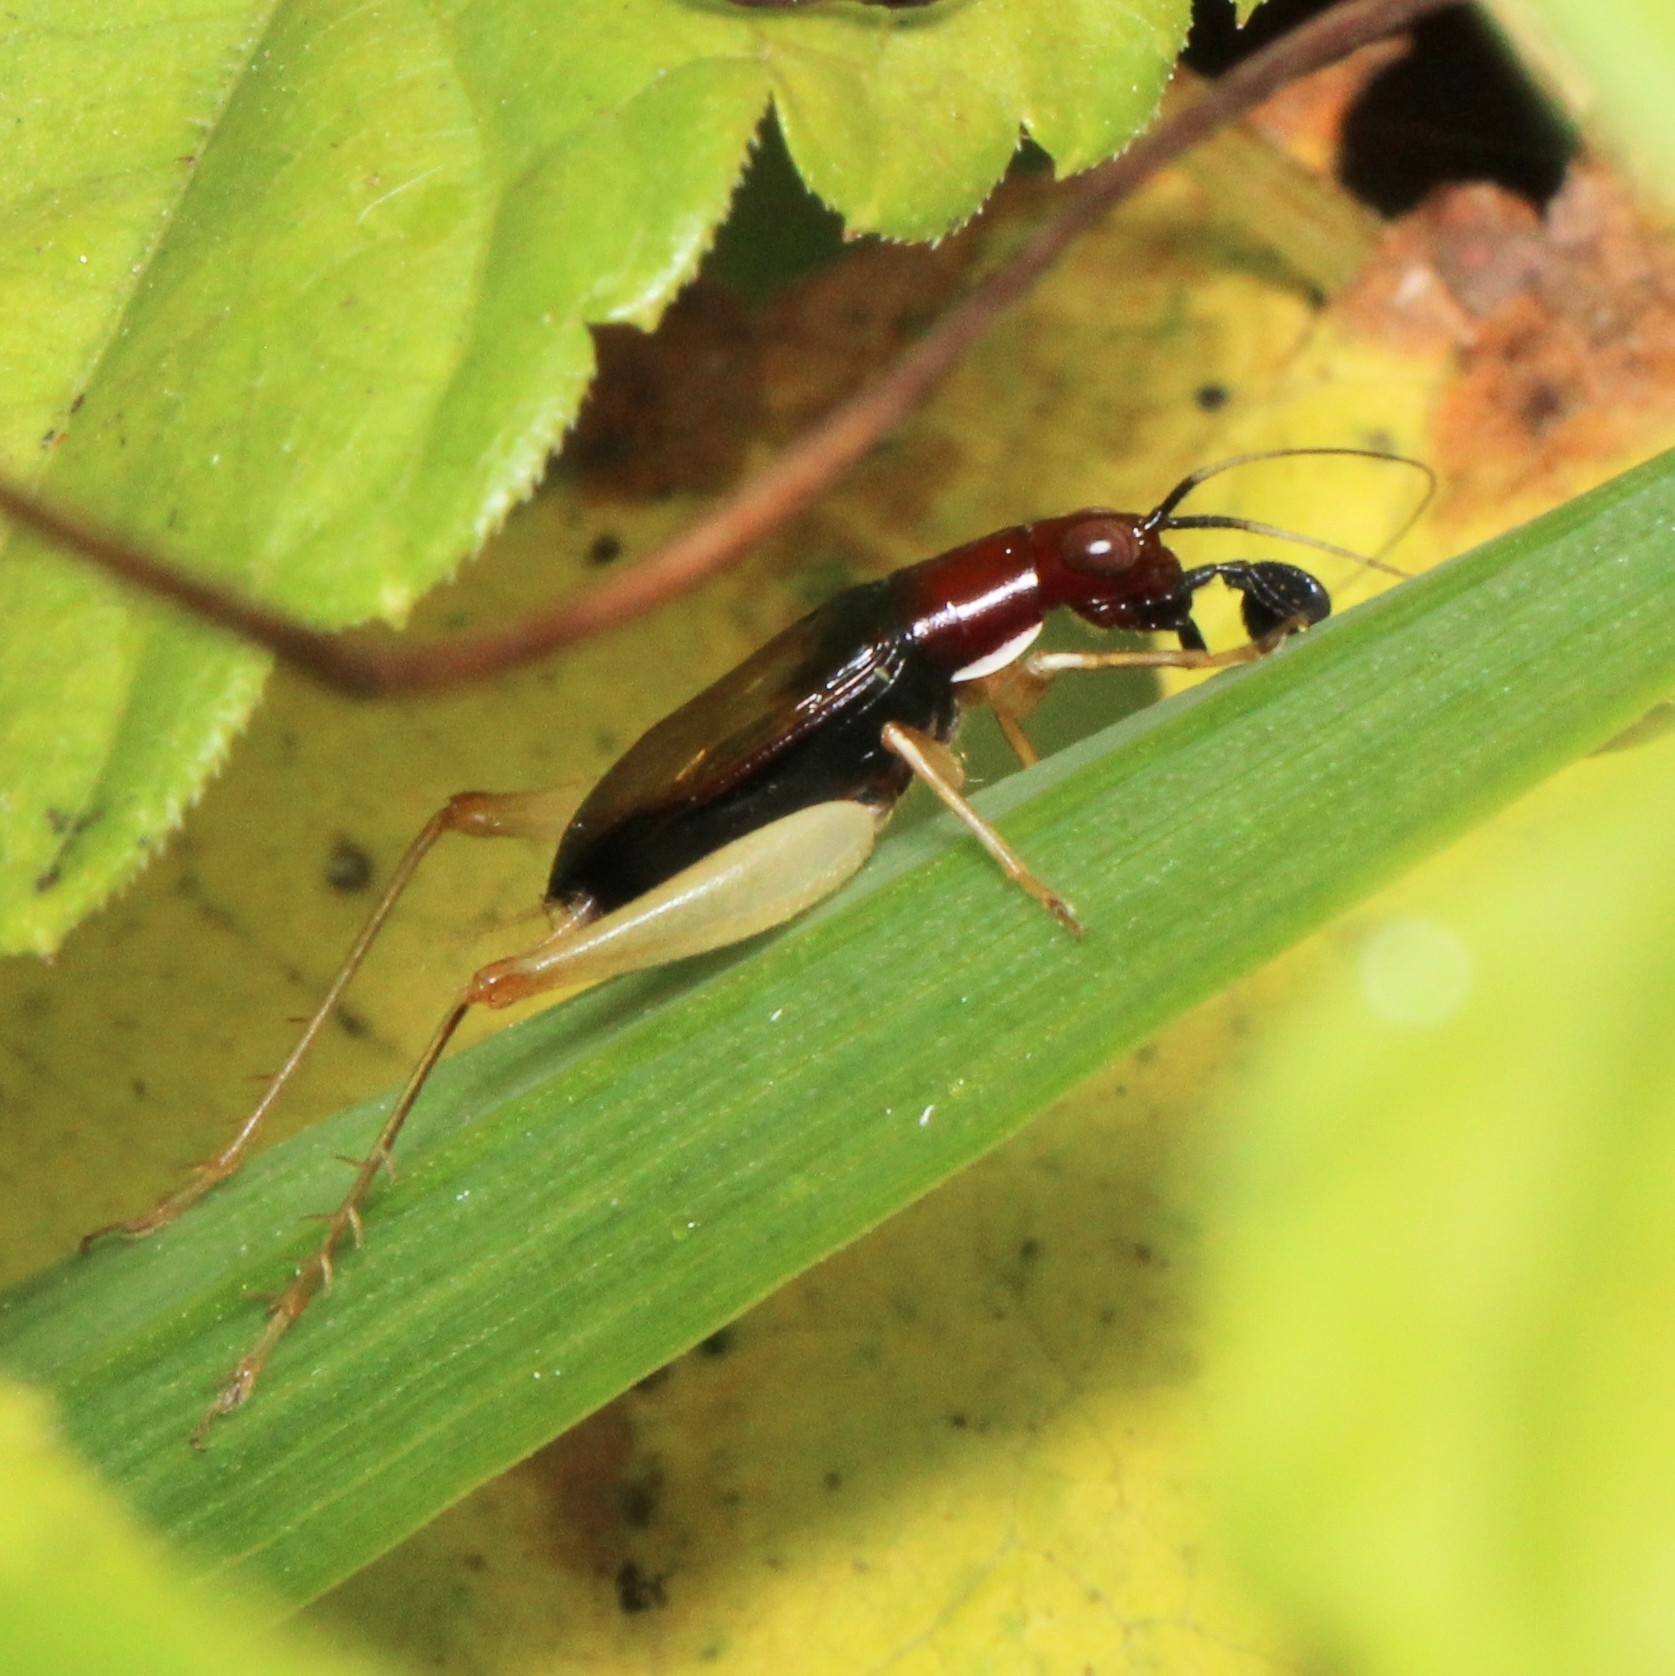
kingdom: Animalia
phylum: Arthropoda
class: Insecta
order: Orthoptera
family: Trigonidiidae
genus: Phyllopalpus
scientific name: Phyllopalpus pulchellus
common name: Handsome trig
